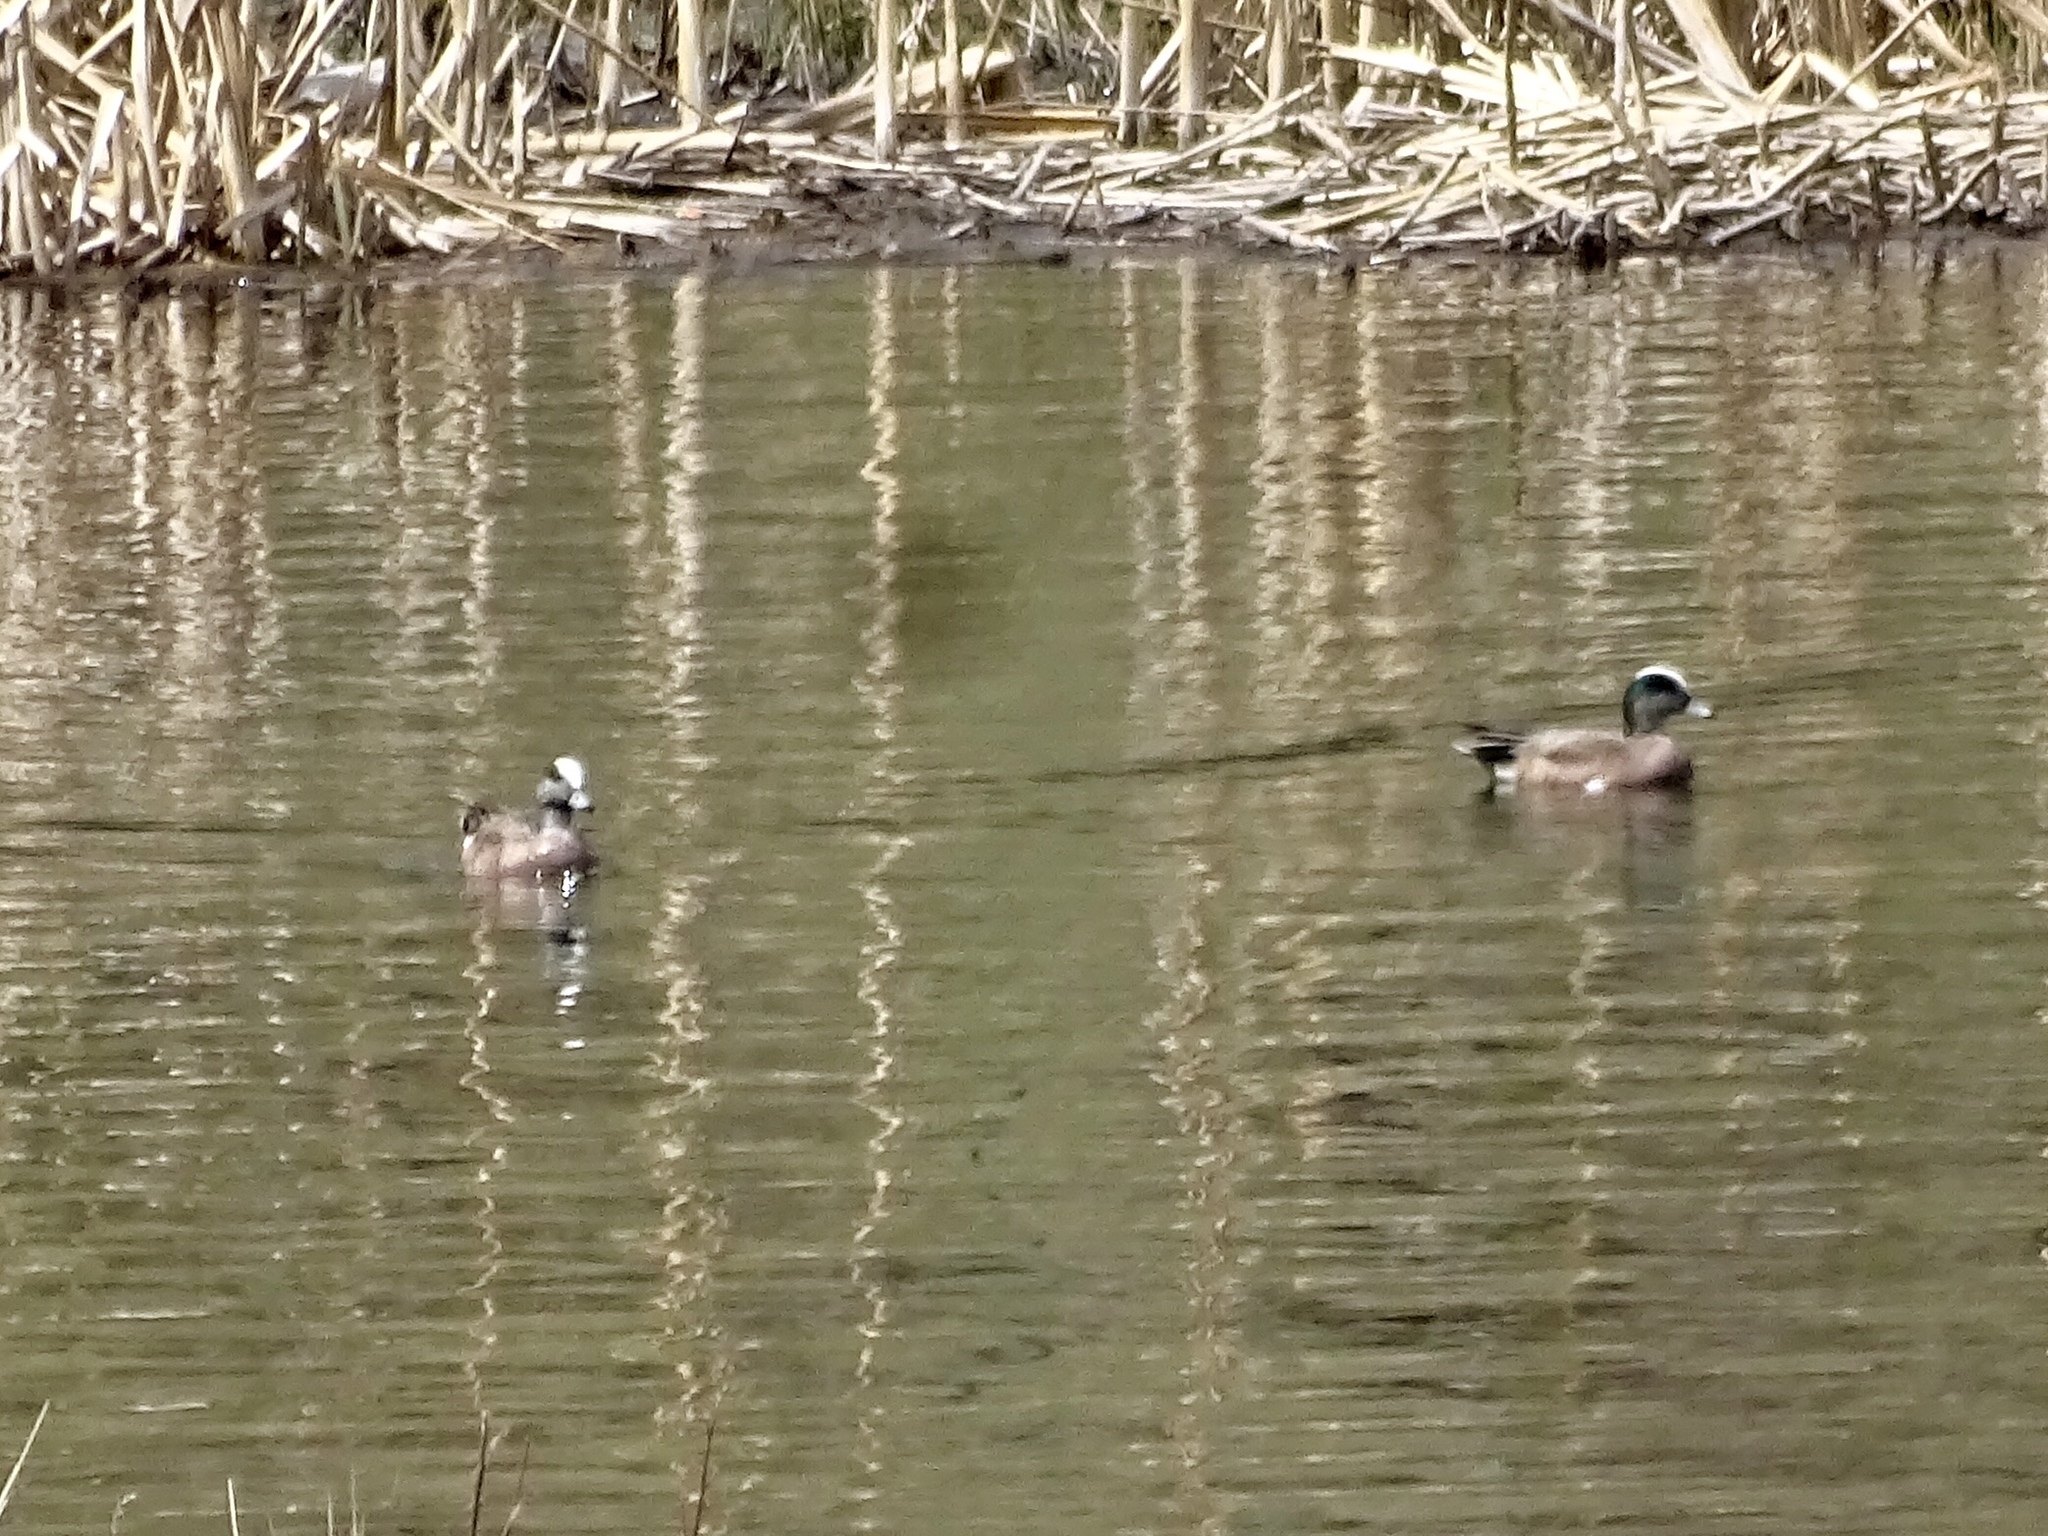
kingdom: Animalia
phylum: Chordata
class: Aves
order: Anseriformes
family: Anatidae
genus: Mareca
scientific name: Mareca americana
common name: American wigeon
